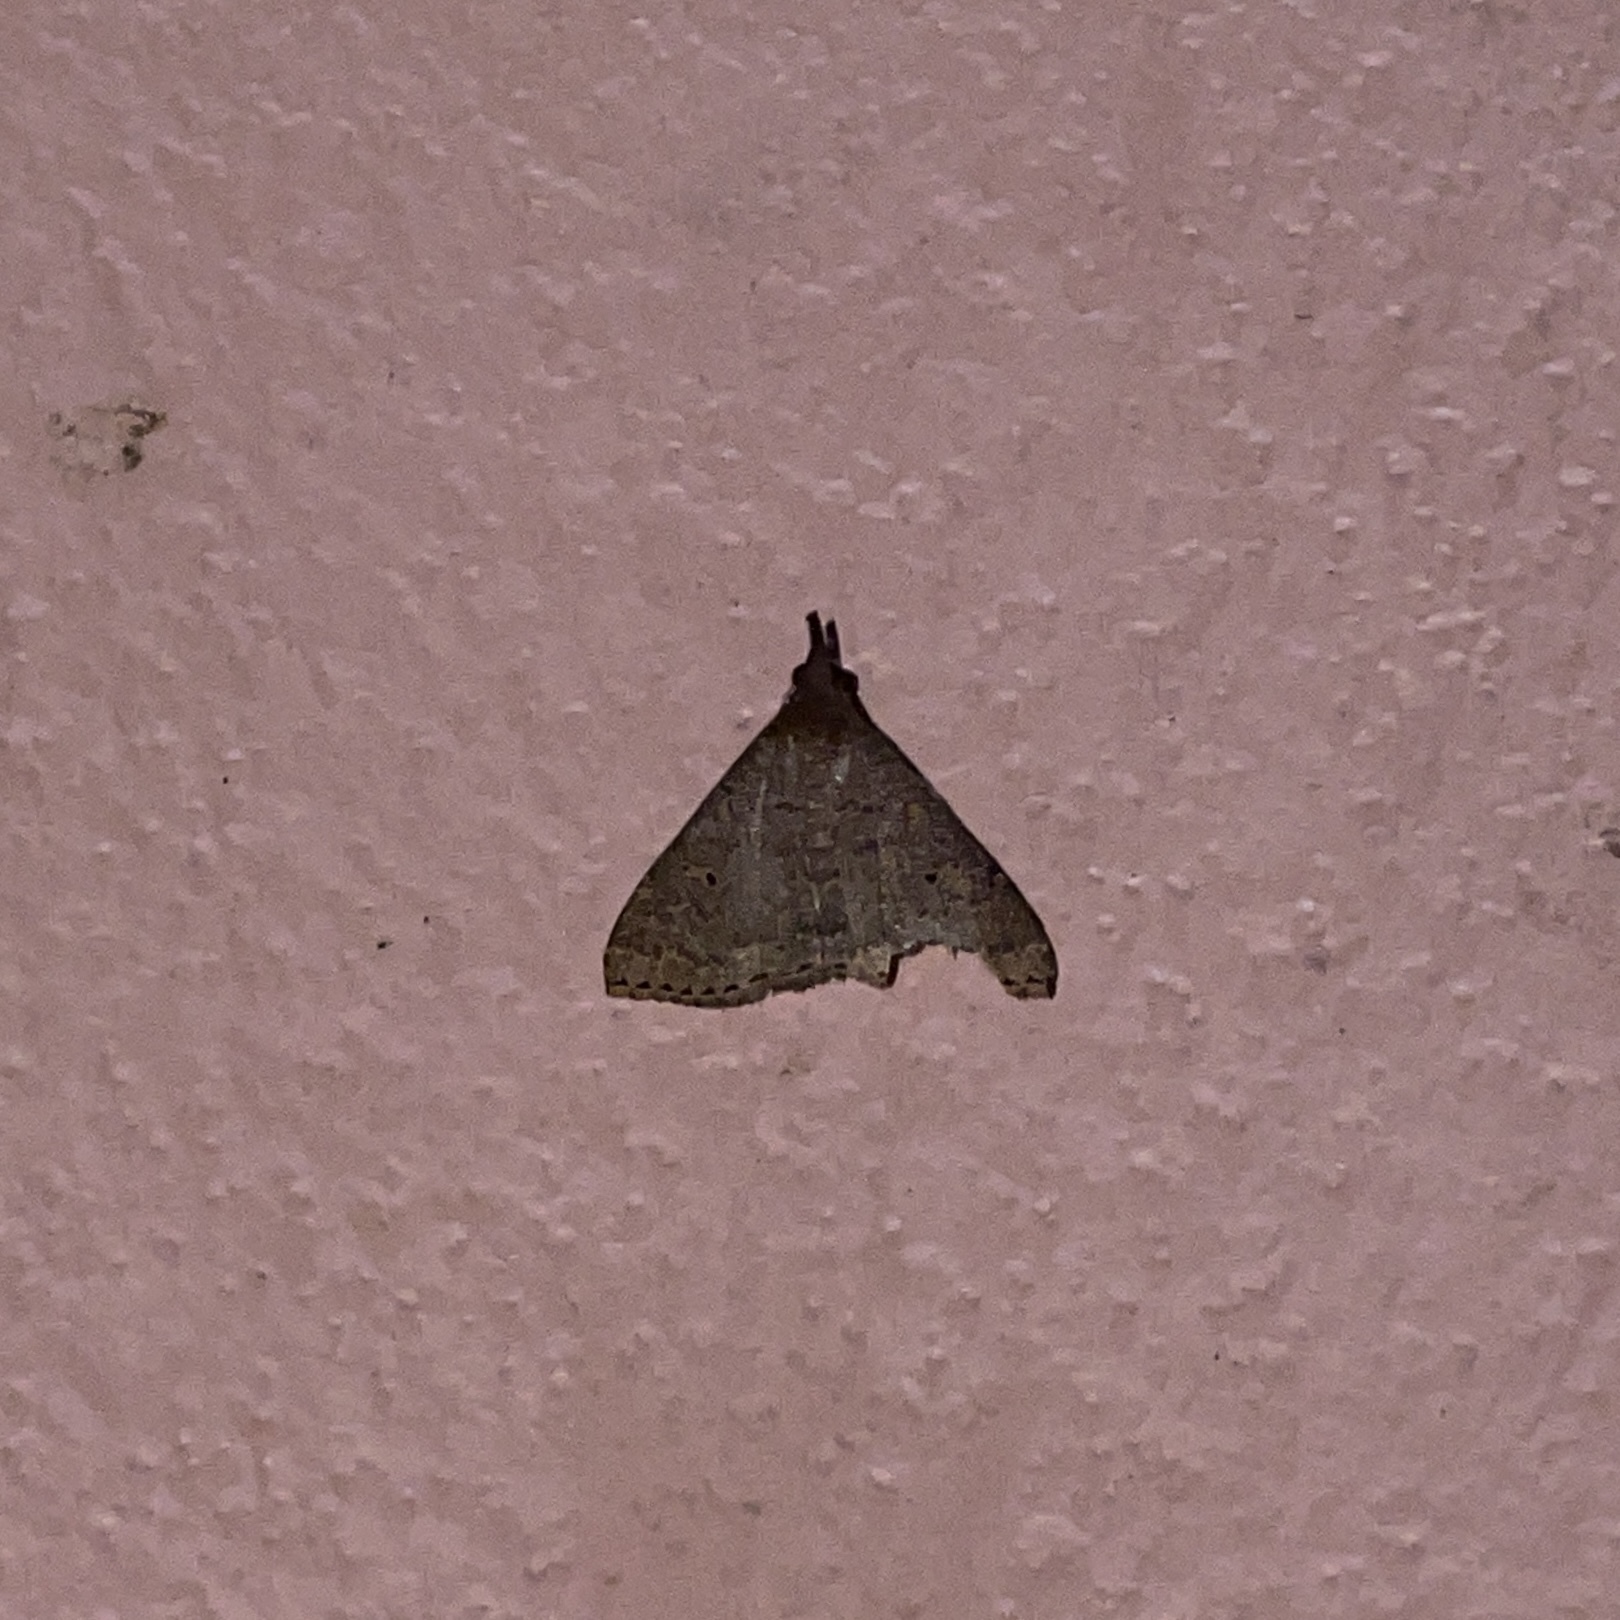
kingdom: Animalia
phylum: Arthropoda
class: Insecta
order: Lepidoptera
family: Erebidae
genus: Physula
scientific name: Physula migralis
